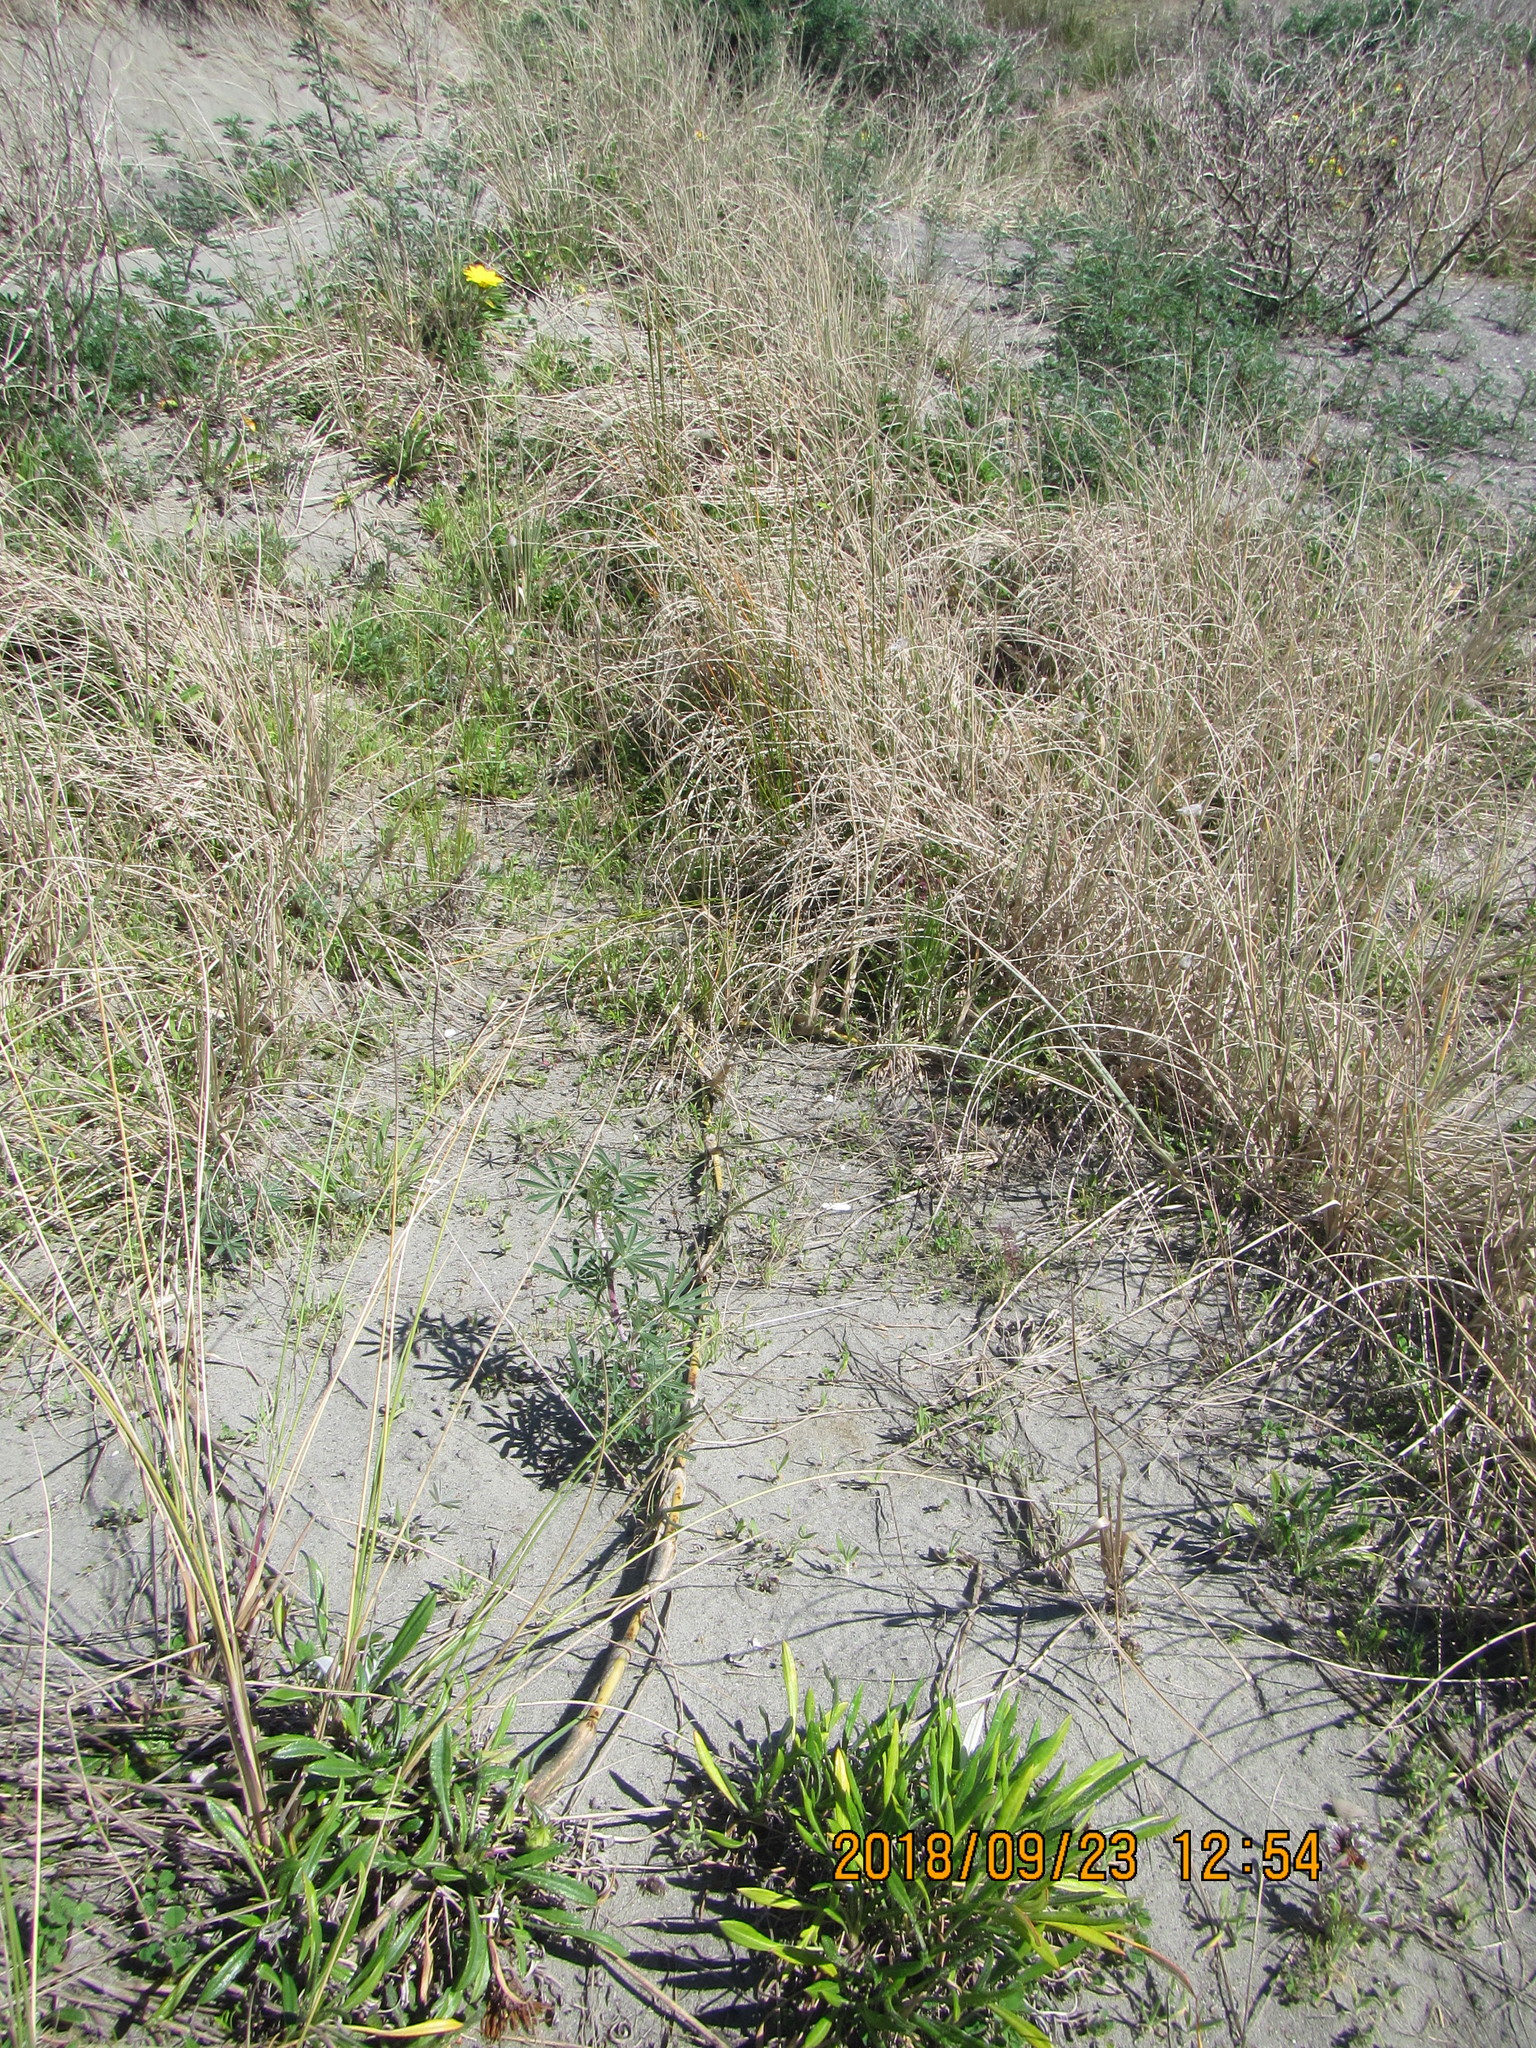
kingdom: Plantae
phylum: Tracheophyta
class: Liliopsida
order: Poales
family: Poaceae
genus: Spinifex
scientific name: Spinifex sericeus
